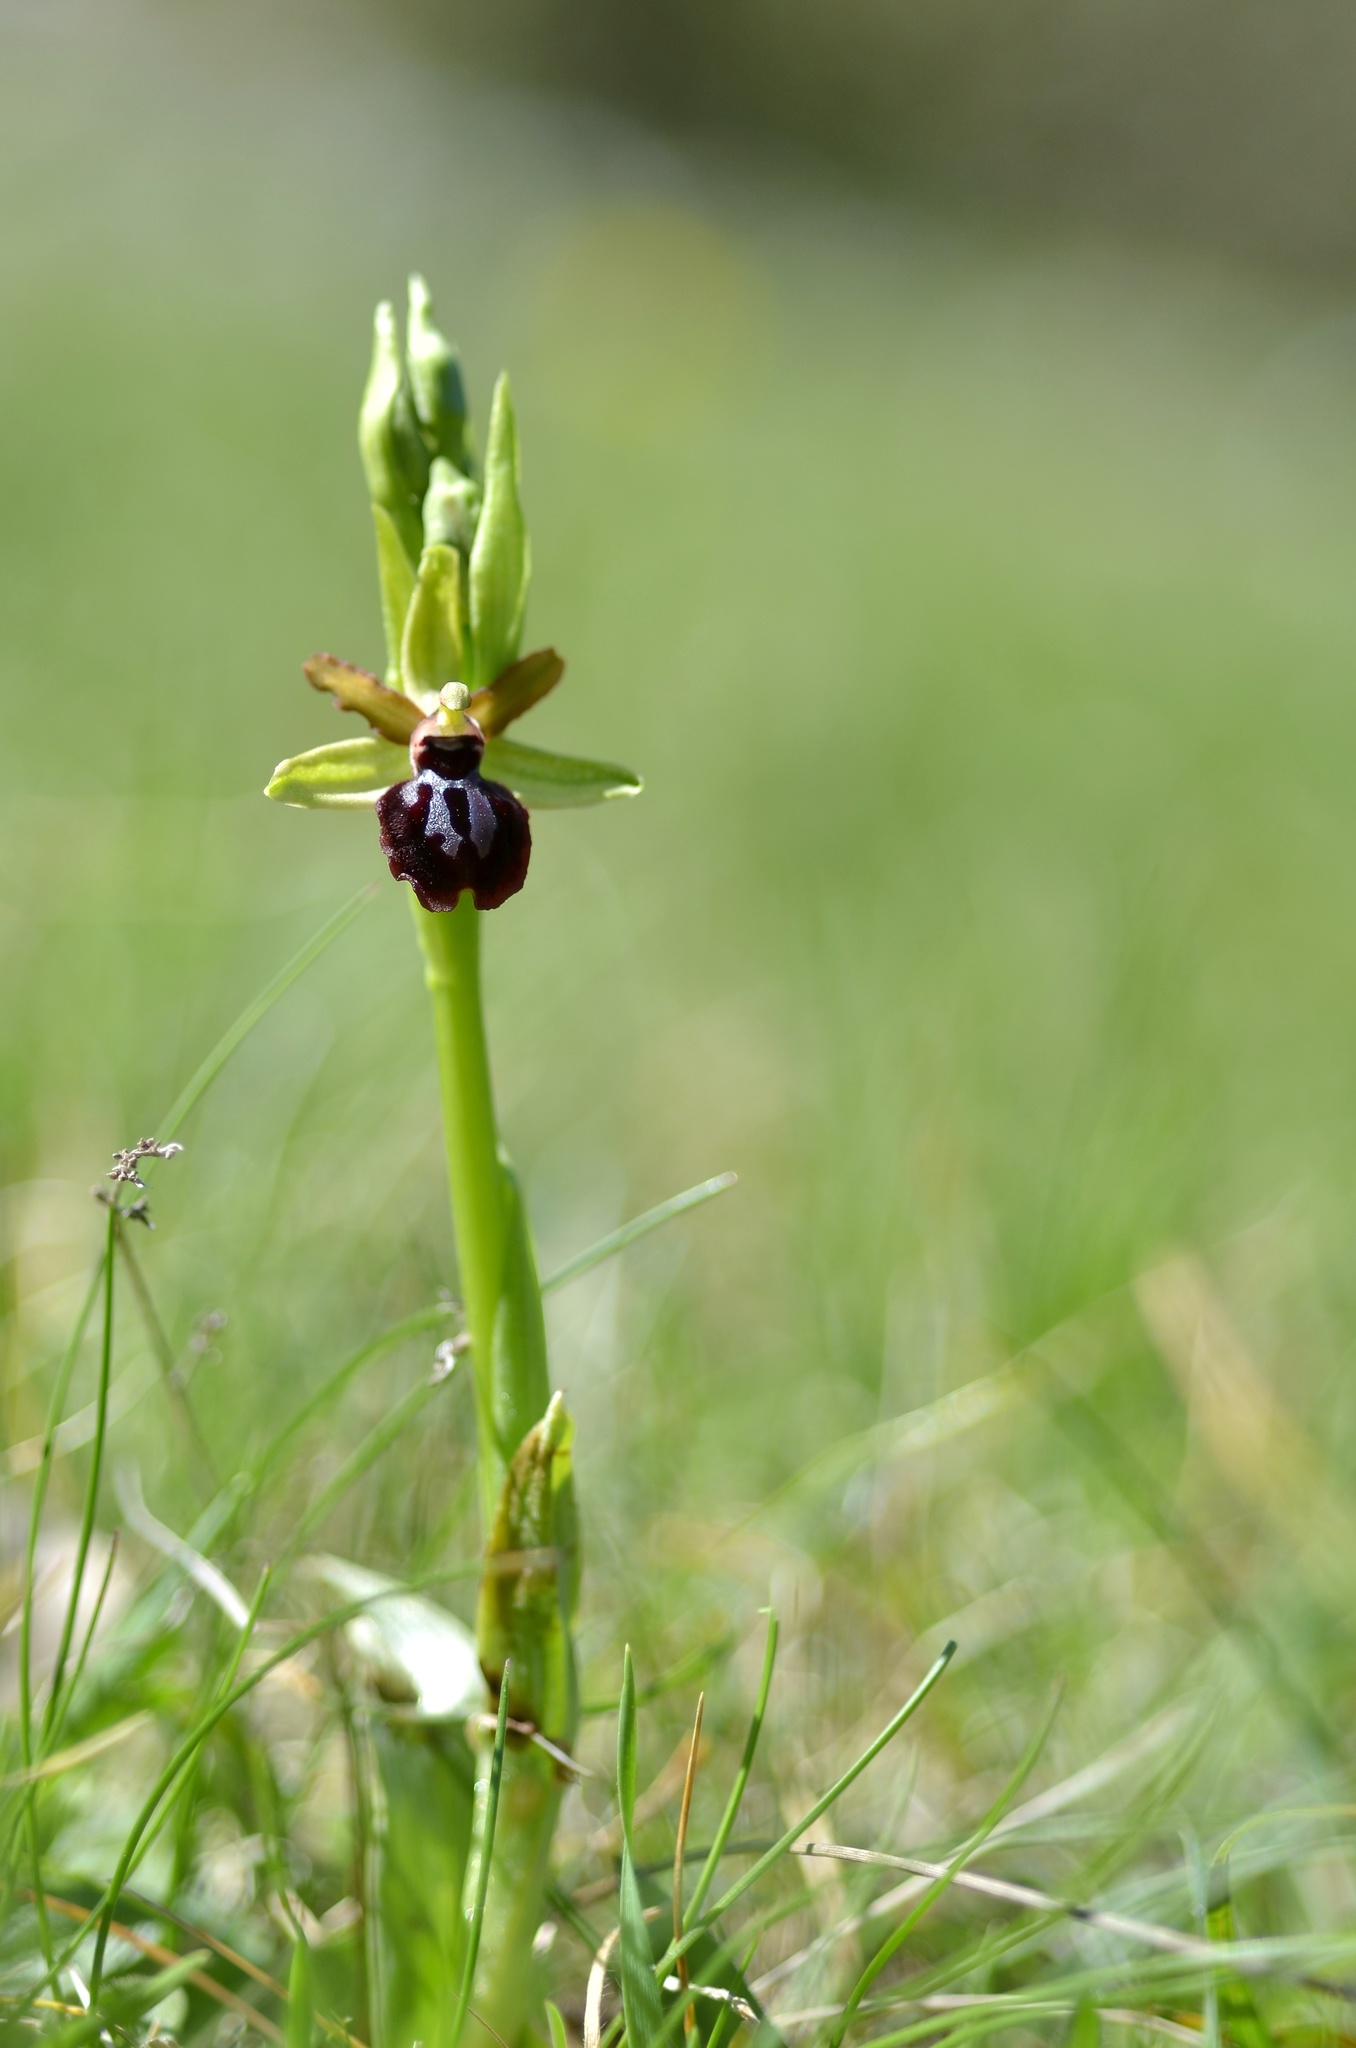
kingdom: Plantae
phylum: Tracheophyta
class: Liliopsida
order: Asparagales
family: Orchidaceae
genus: Ophrys
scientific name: Ophrys sphegodes
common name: Early spider-orchid
